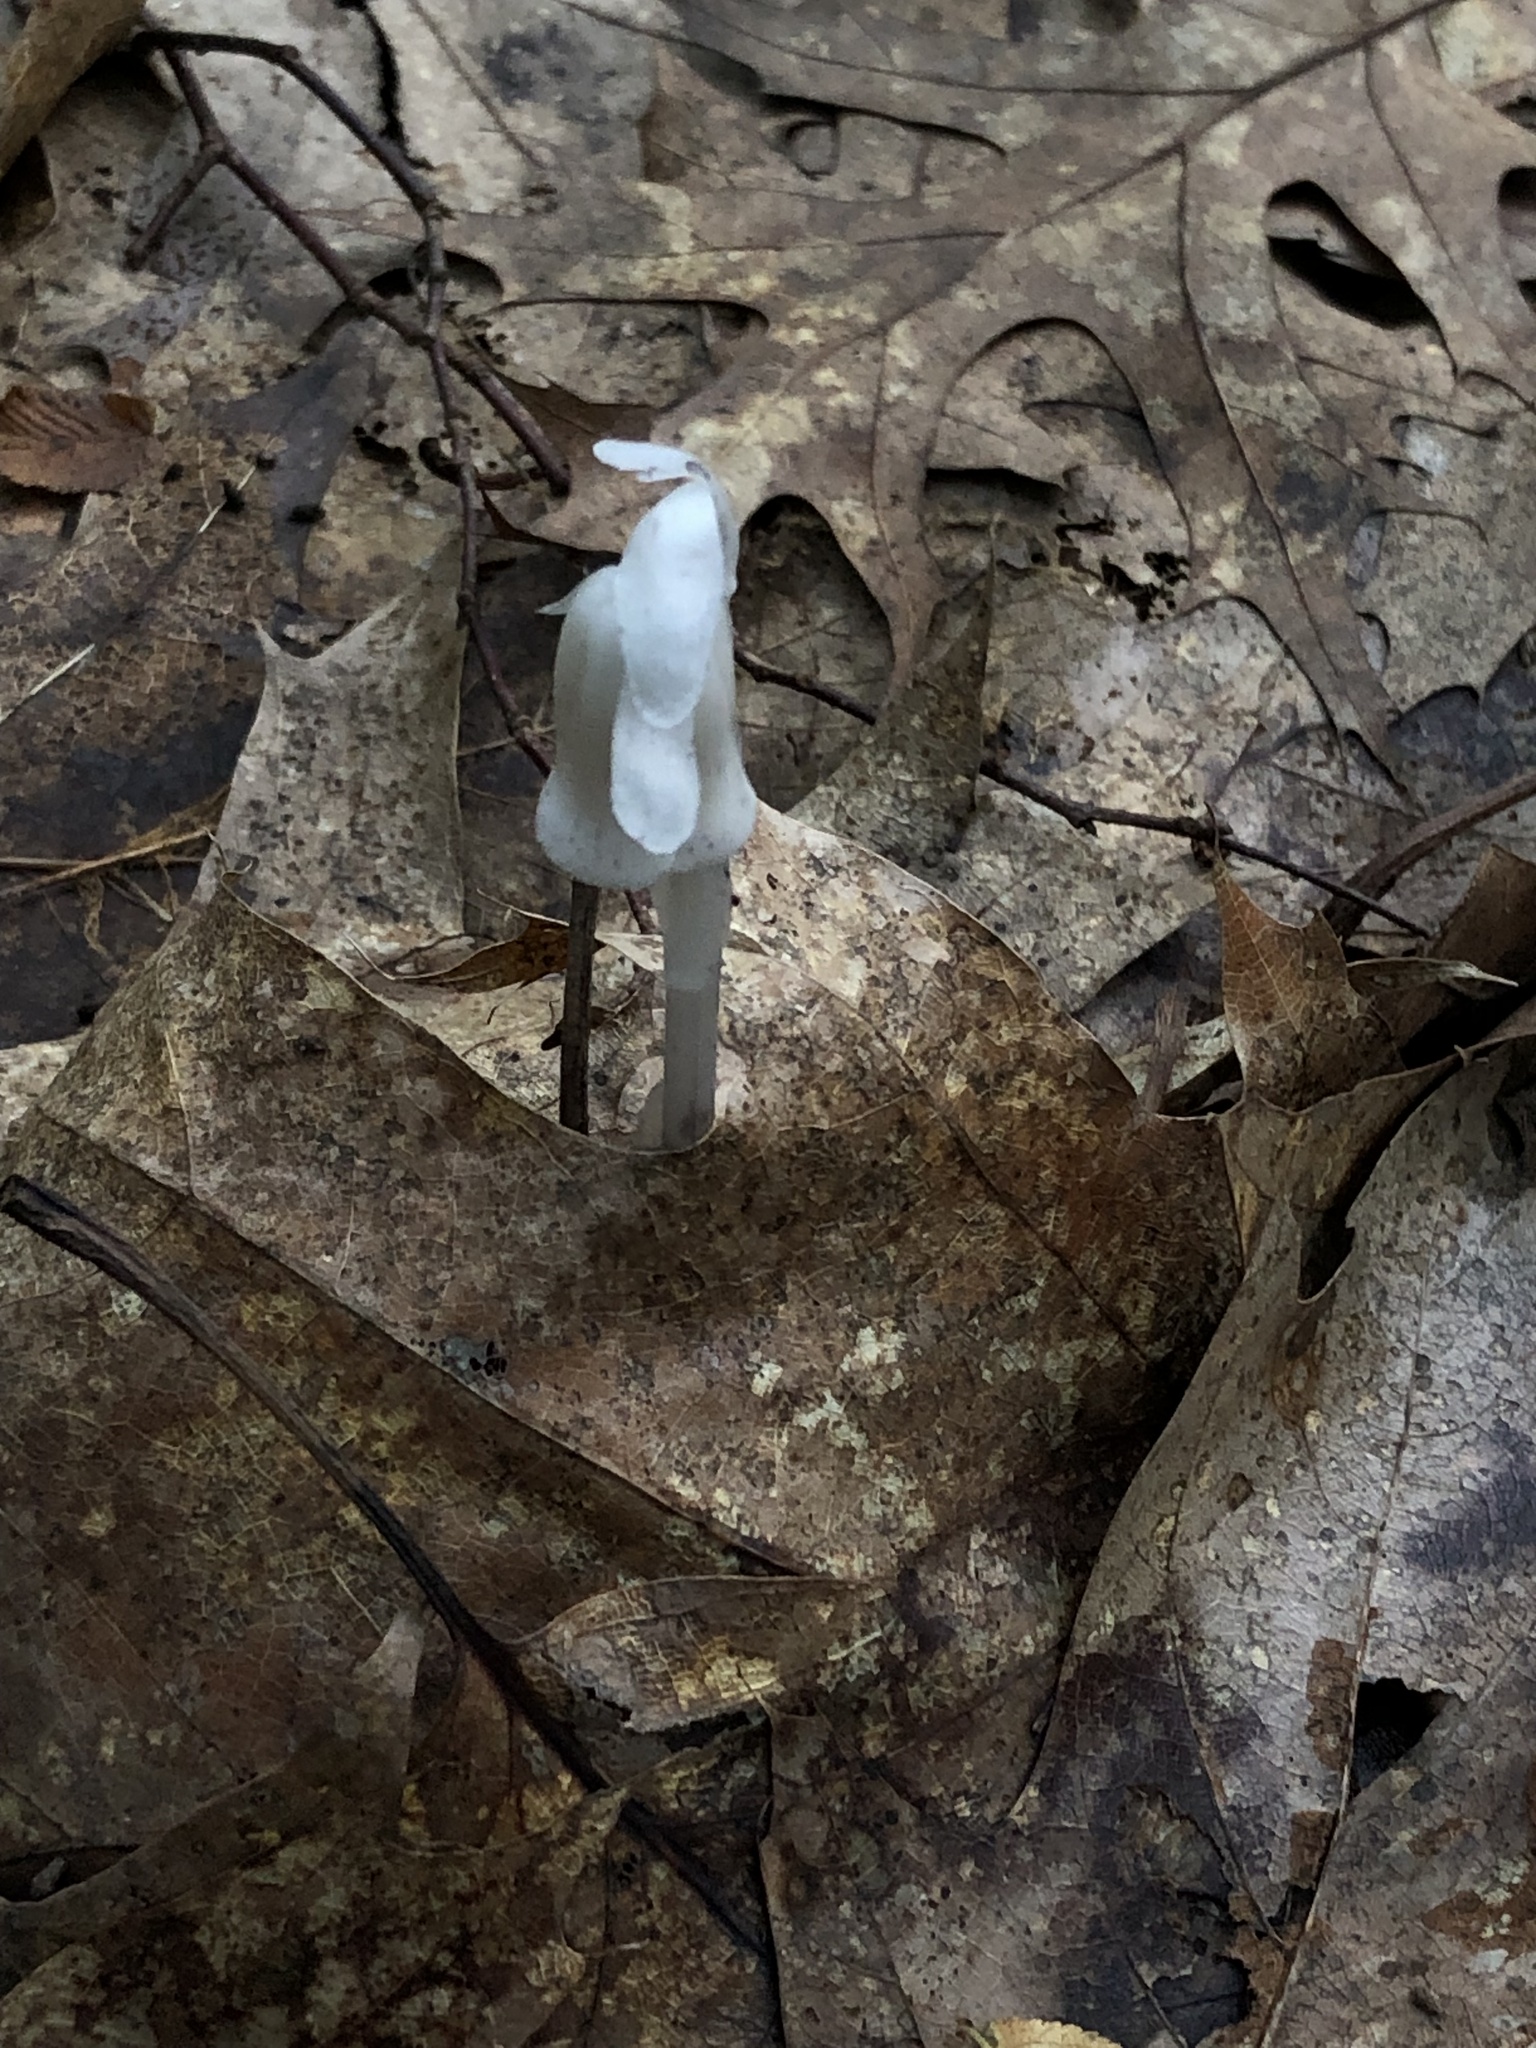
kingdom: Plantae
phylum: Tracheophyta
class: Magnoliopsida
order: Ericales
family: Ericaceae
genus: Monotropa
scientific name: Monotropa uniflora
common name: Convulsion root
